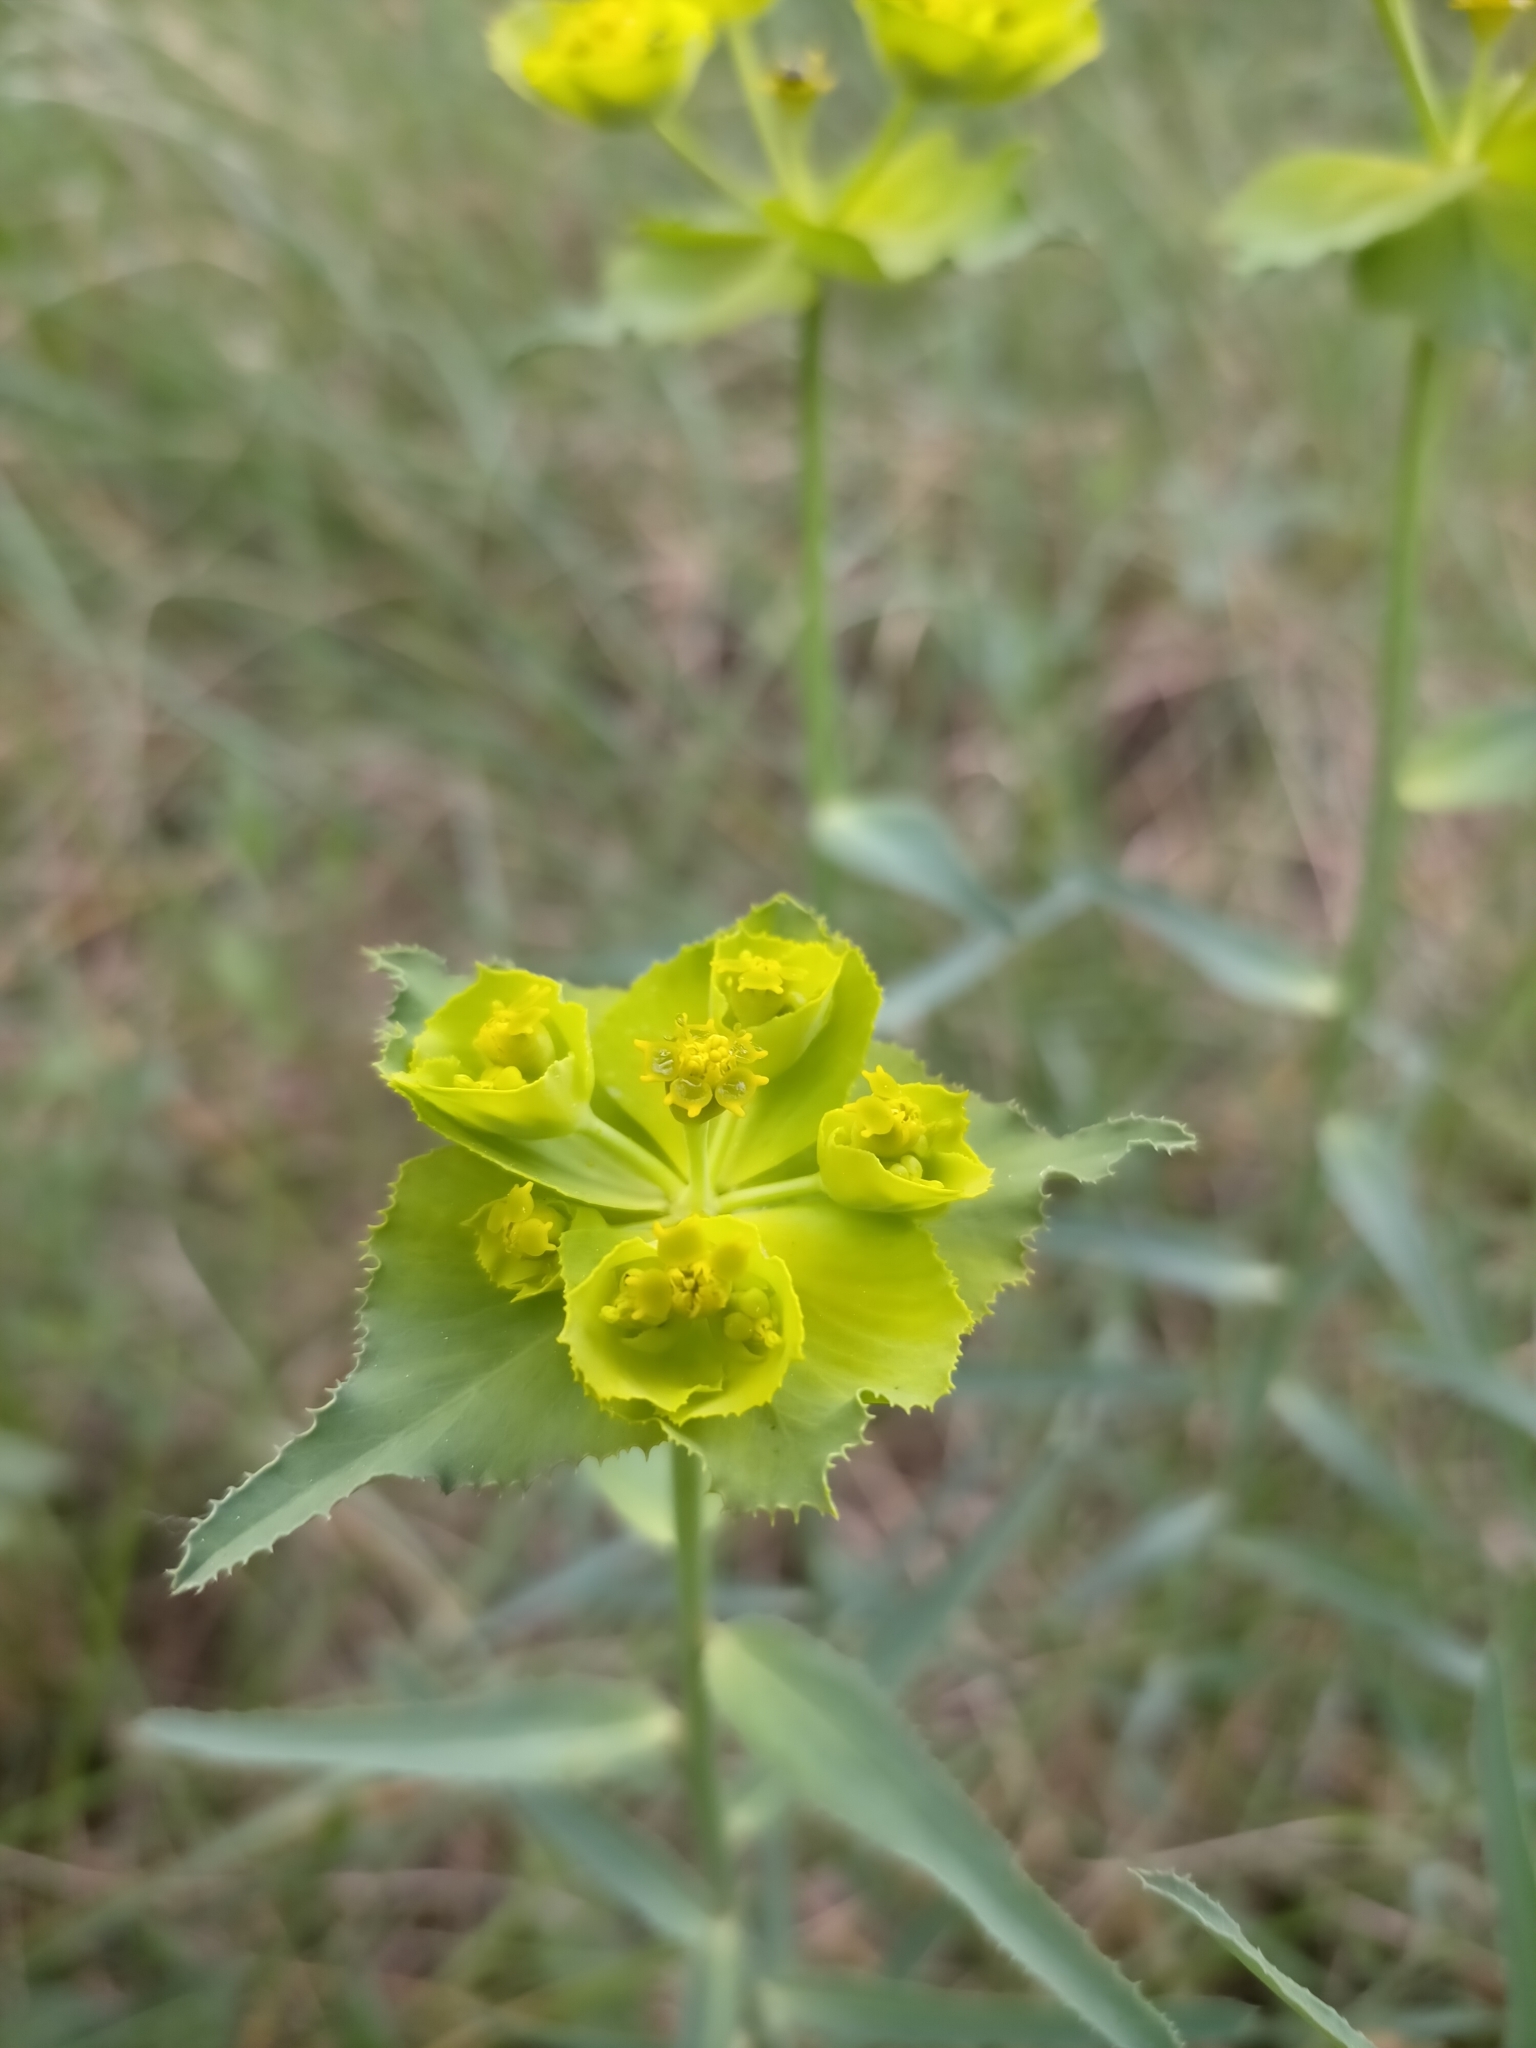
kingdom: Plantae
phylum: Tracheophyta
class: Magnoliopsida
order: Malpighiales
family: Euphorbiaceae
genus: Euphorbia
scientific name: Euphorbia serrata
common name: Serrate spurge
